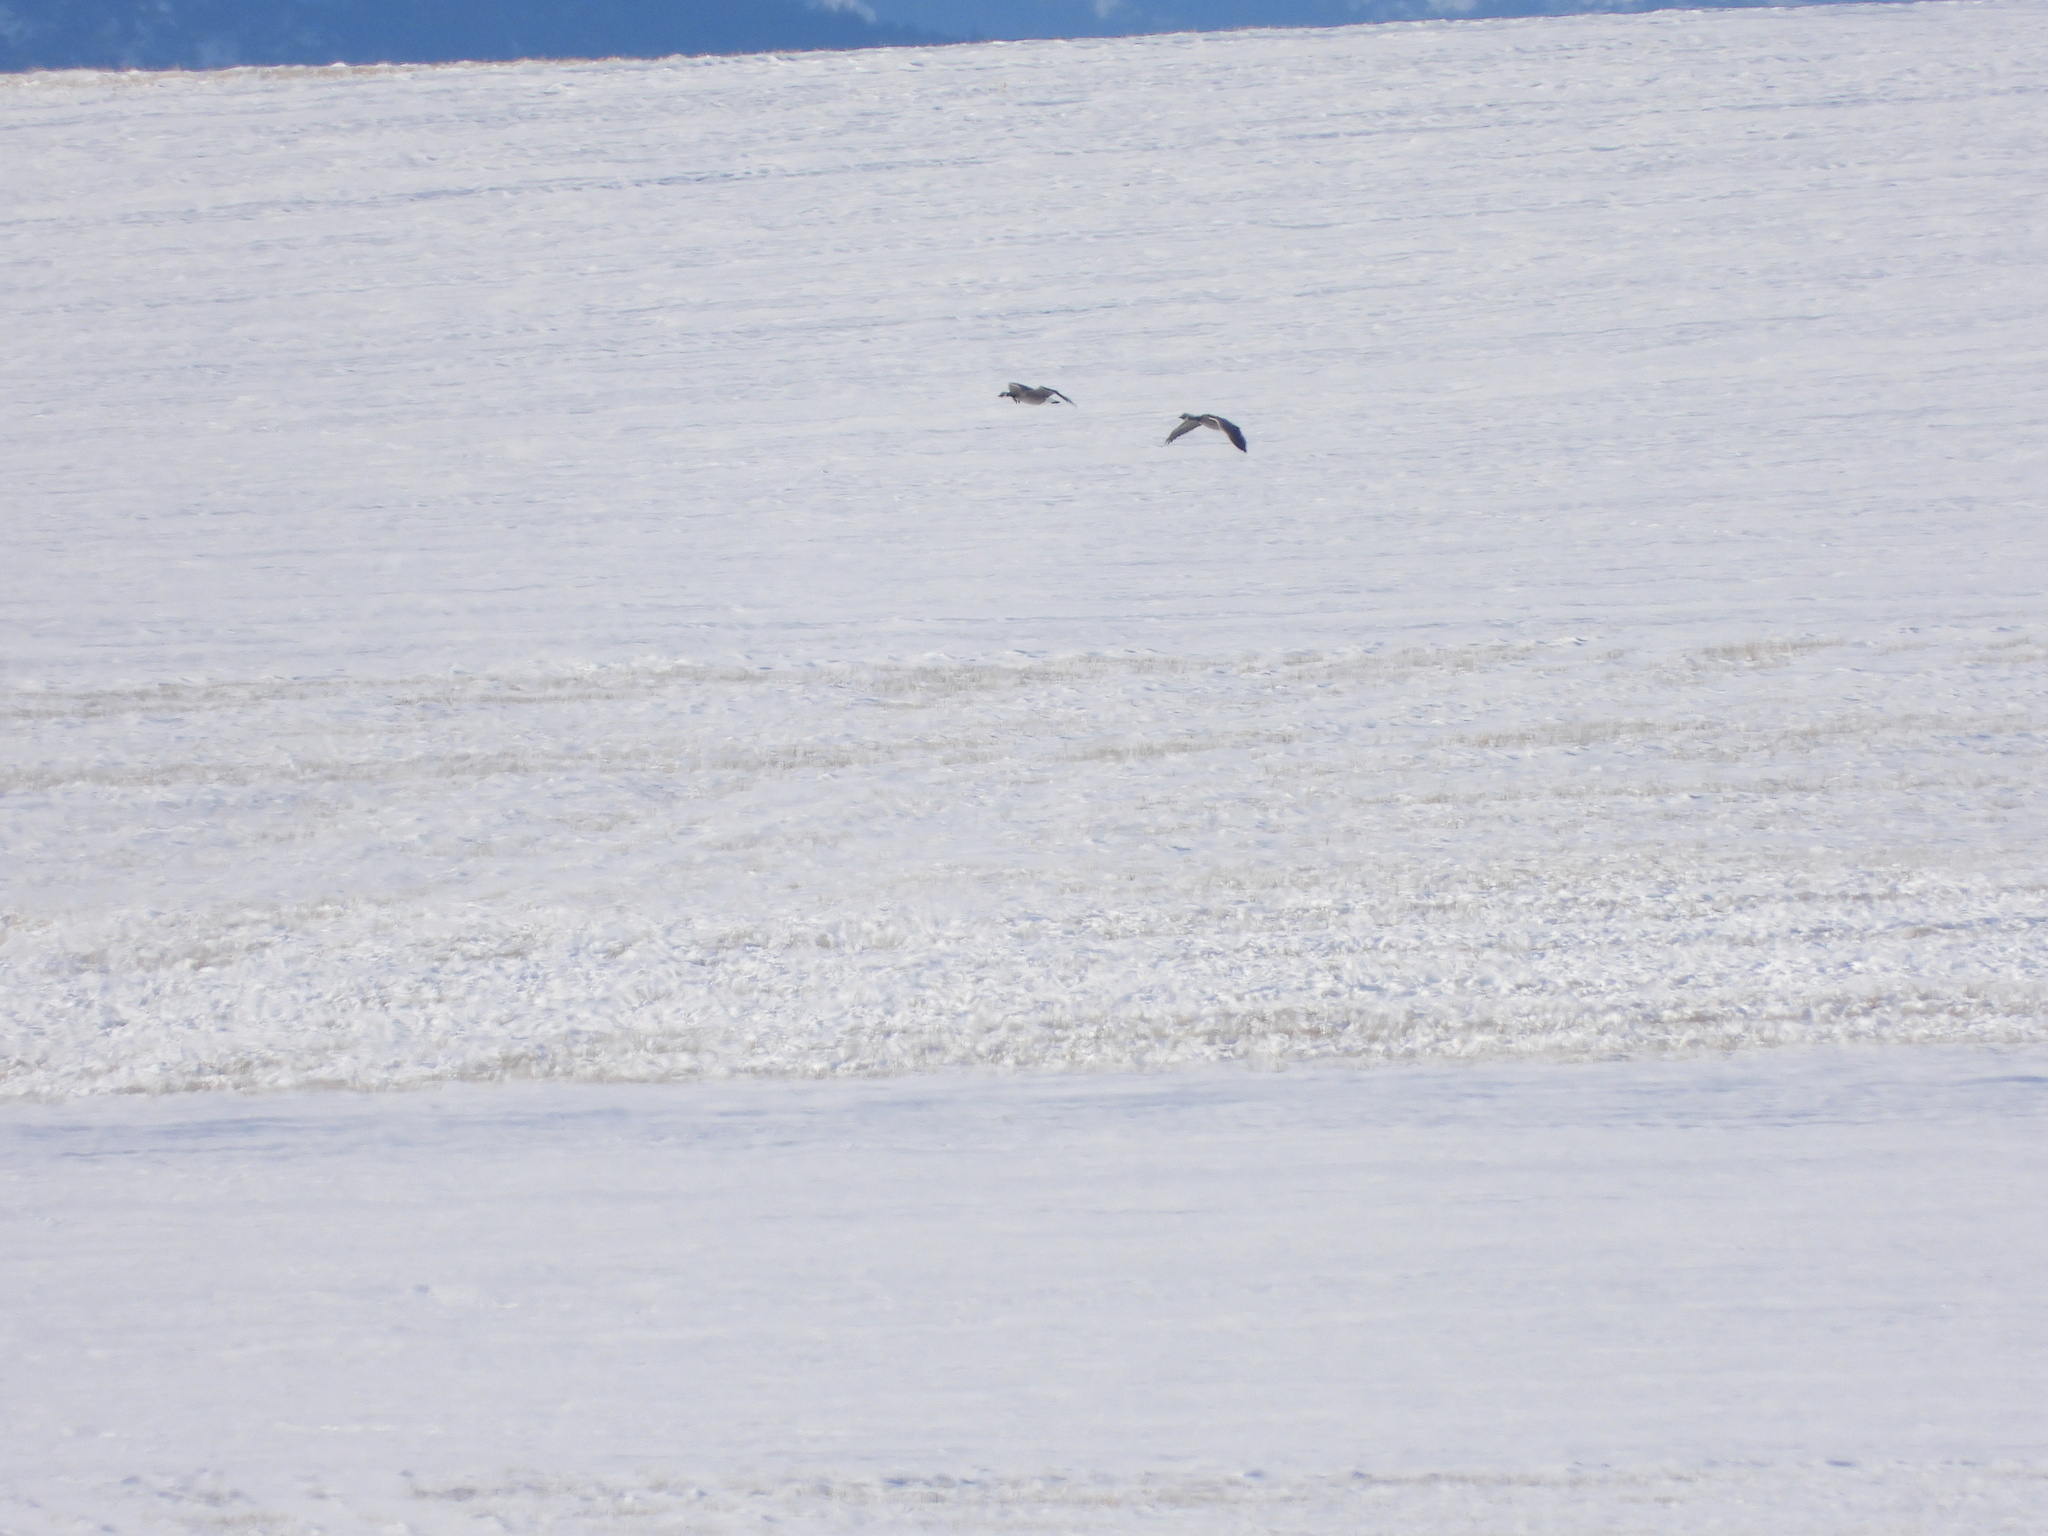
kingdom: Animalia
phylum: Chordata
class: Aves
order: Anseriformes
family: Anatidae
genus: Branta
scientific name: Branta hutchinsii
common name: Cackling goose
